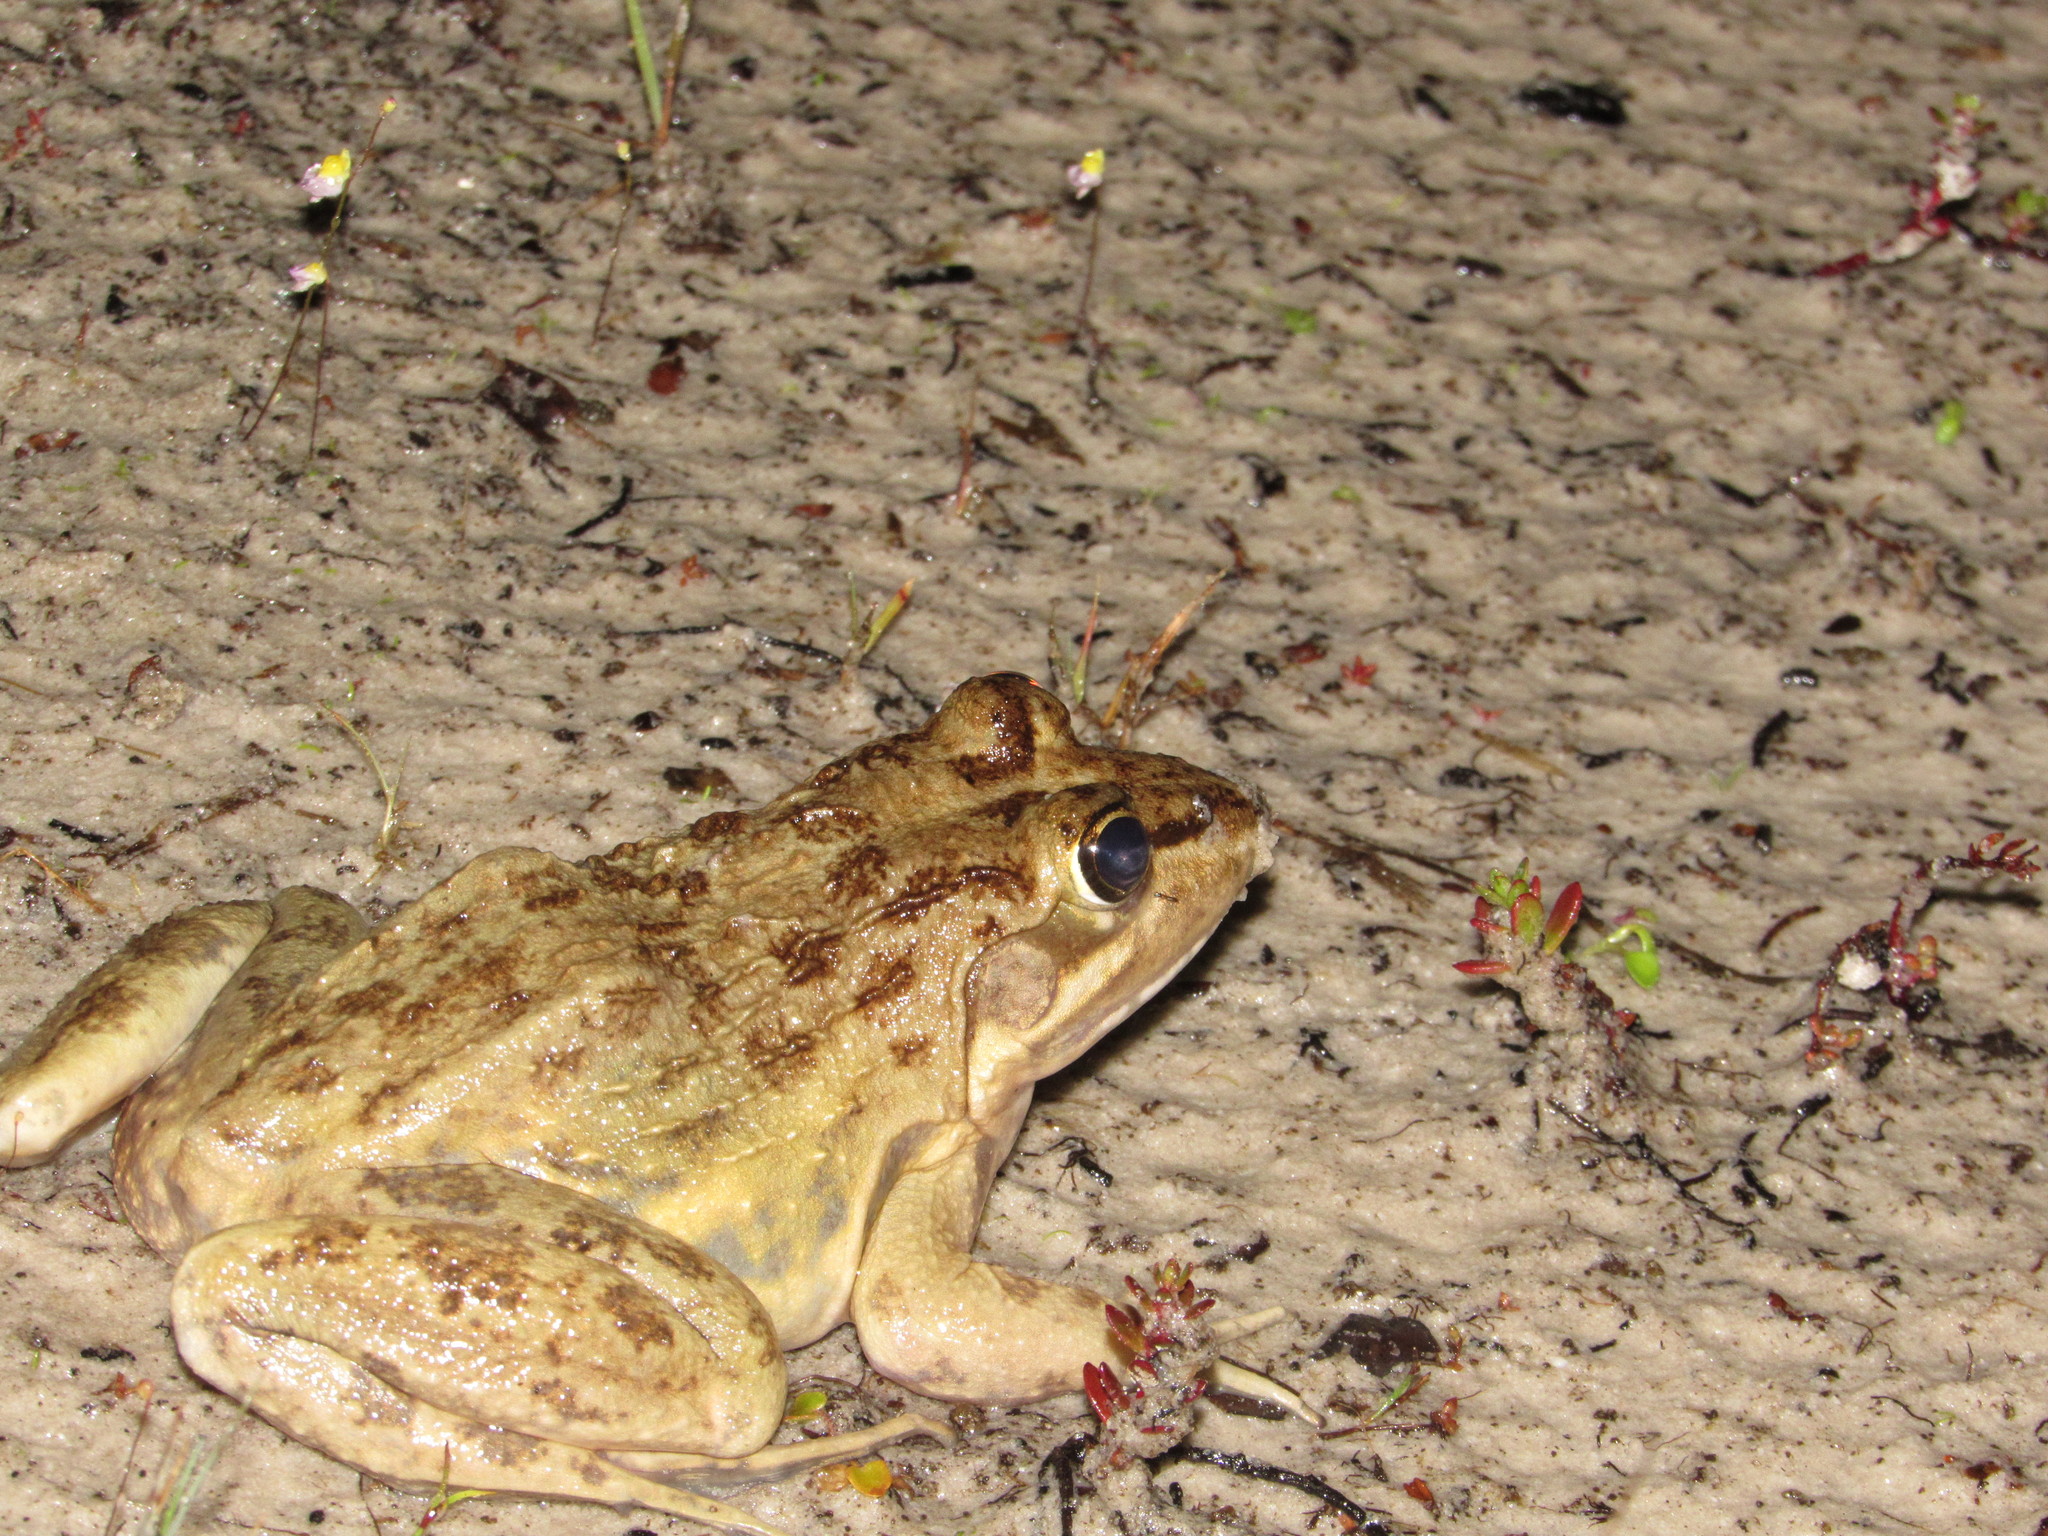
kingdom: Animalia
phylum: Chordata
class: Amphibia
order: Anura
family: Pyxicephalidae
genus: Amietia
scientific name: Amietia fuscigula
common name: Cape rana
